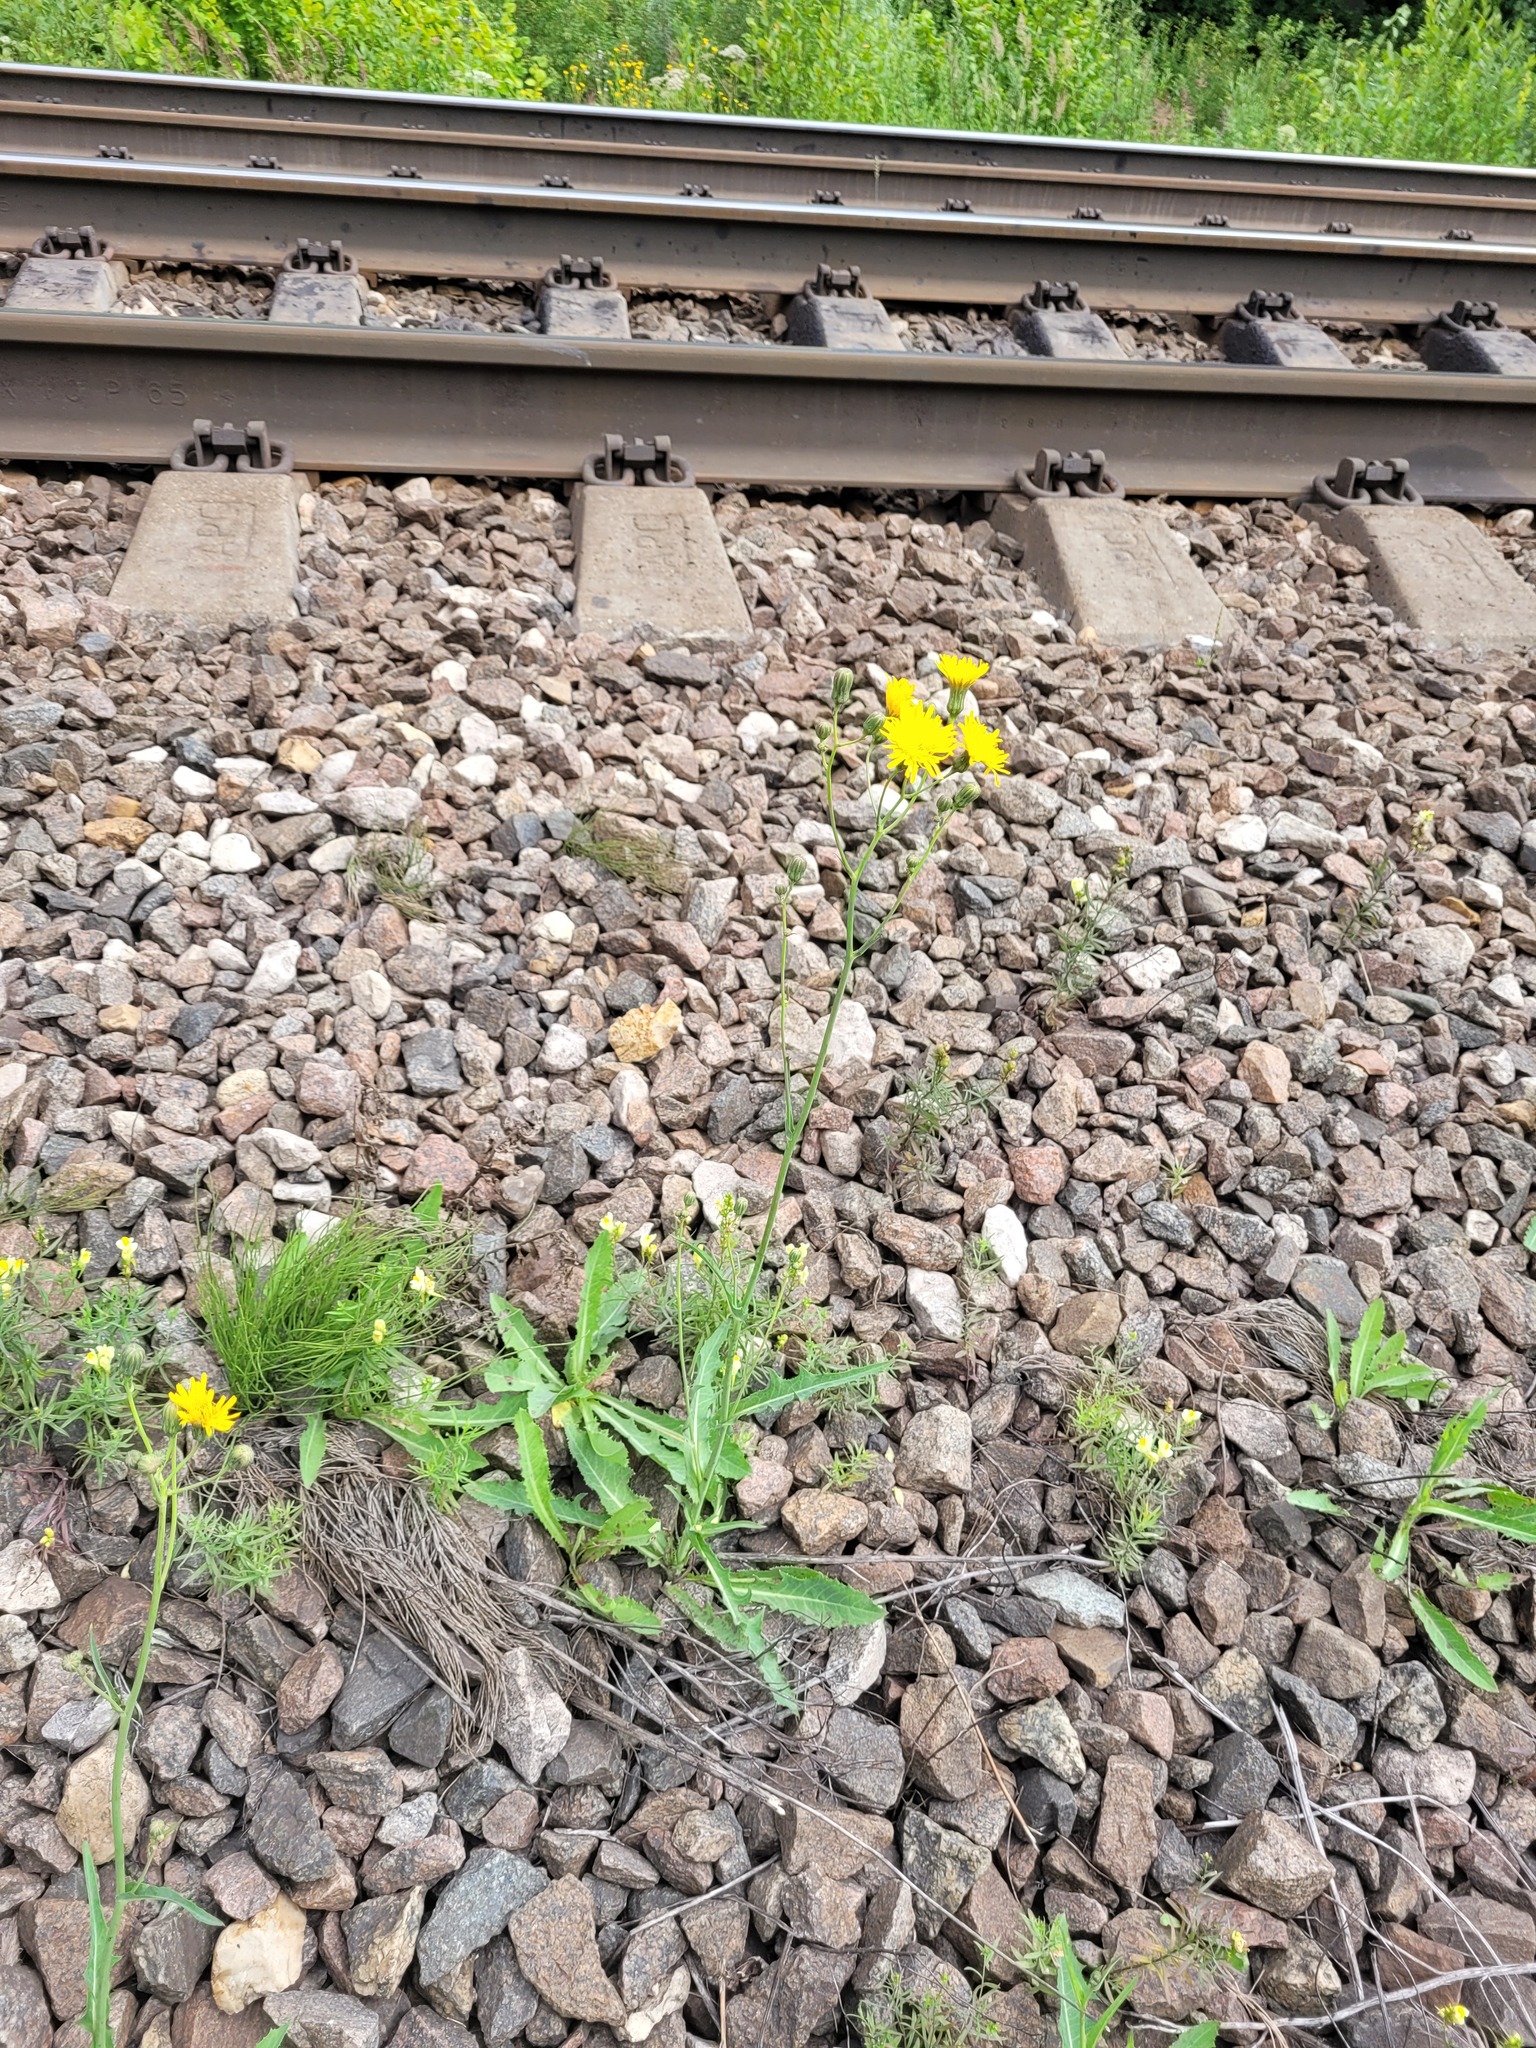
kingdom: Plantae
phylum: Tracheophyta
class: Magnoliopsida
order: Asterales
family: Asteraceae
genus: Sonchus
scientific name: Sonchus arvensis
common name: Perennial sow-thistle
